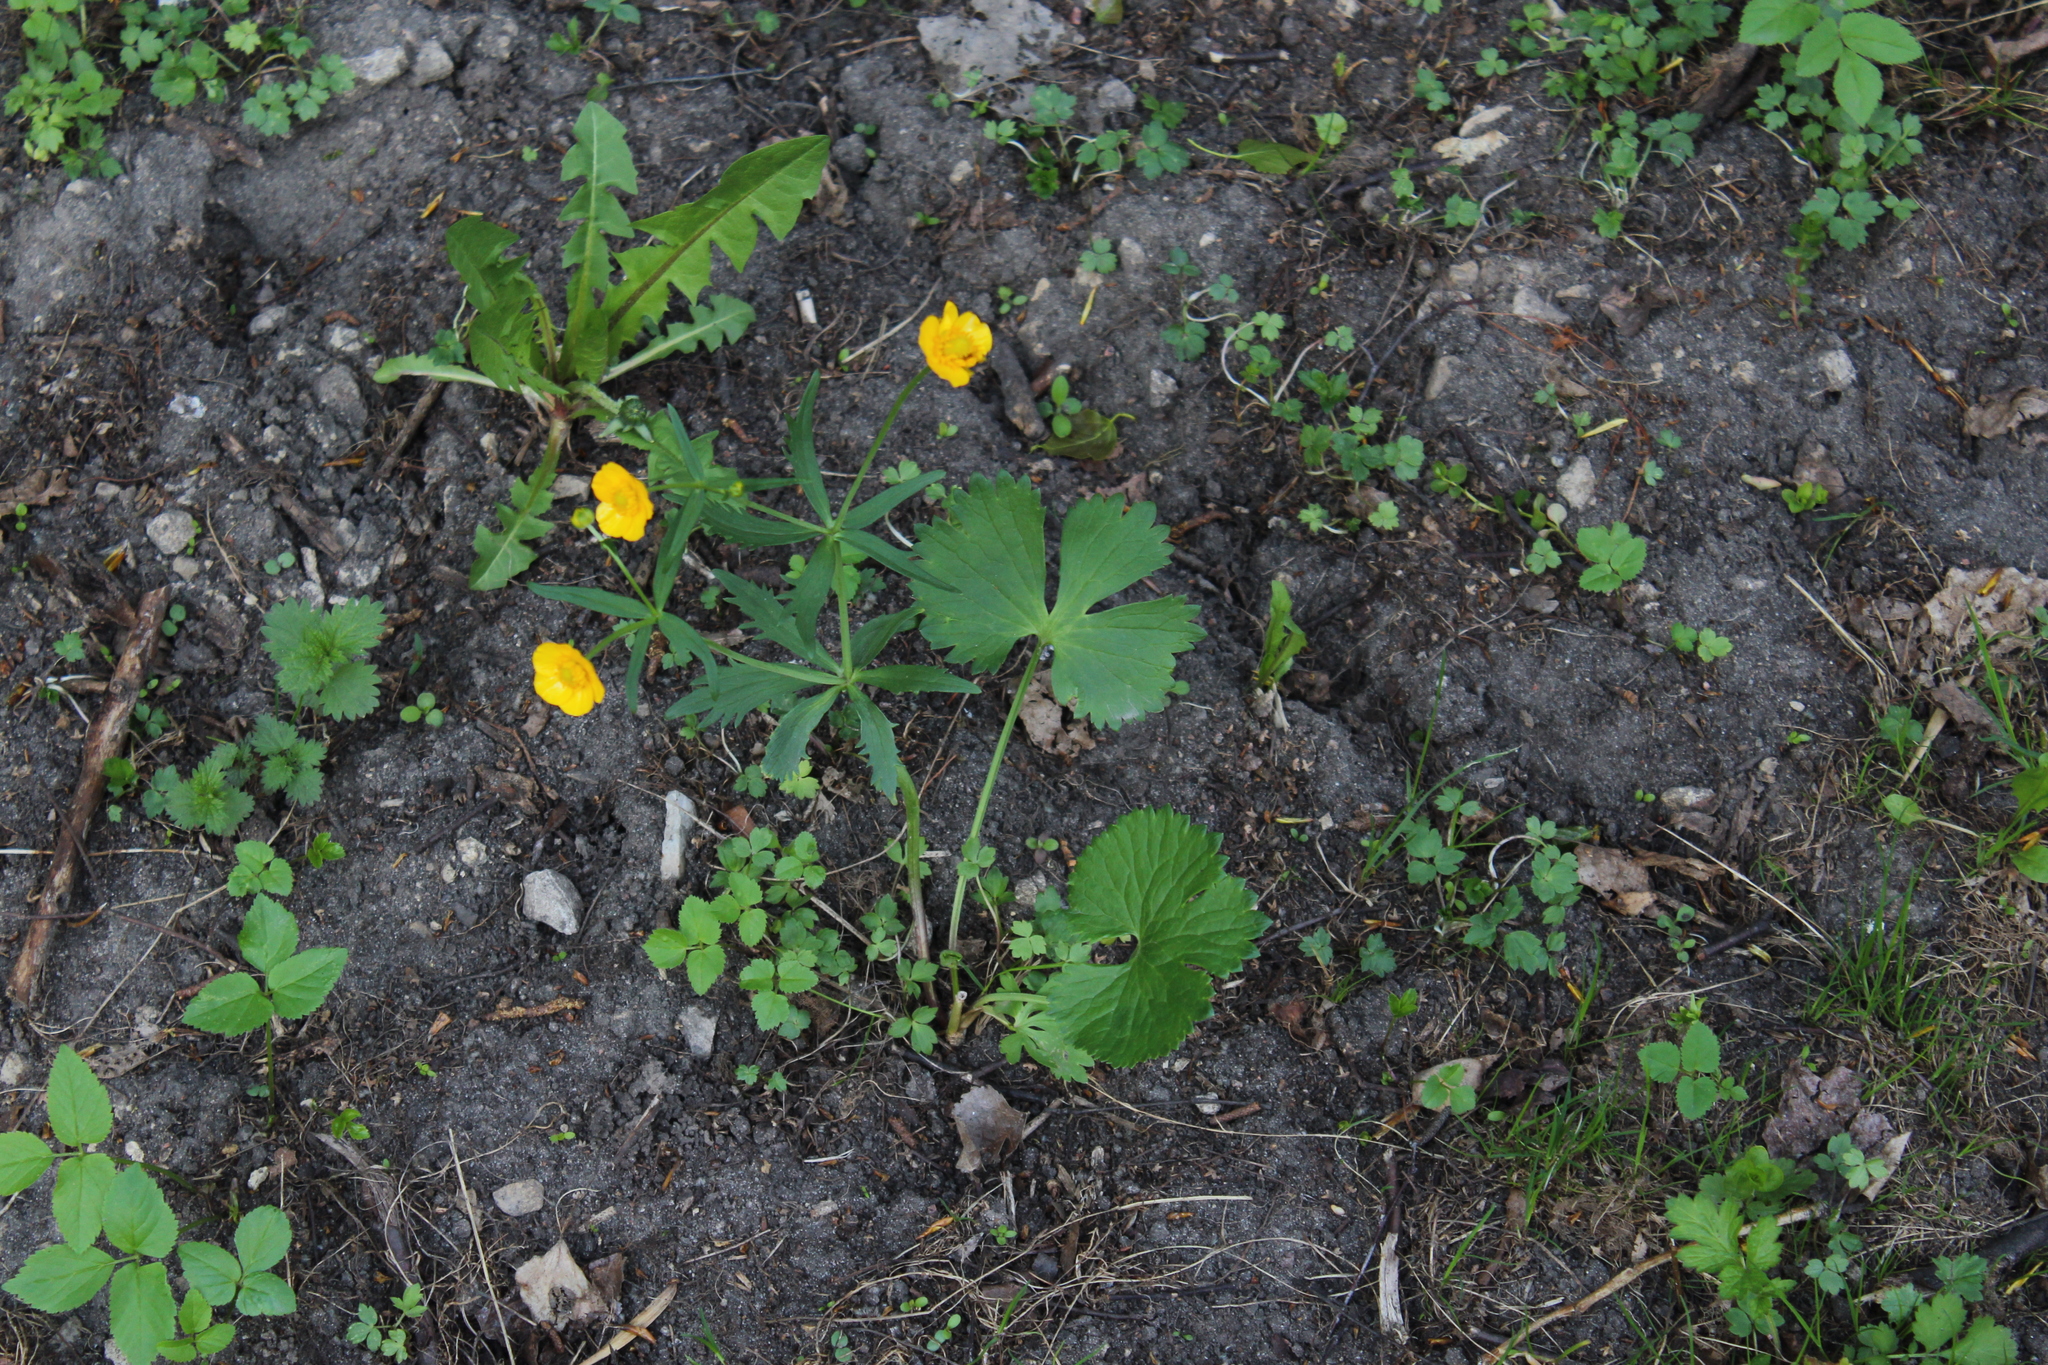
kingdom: Plantae
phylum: Tracheophyta
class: Magnoliopsida
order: Ranunculales
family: Ranunculaceae
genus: Ranunculus
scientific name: Ranunculus fallax
